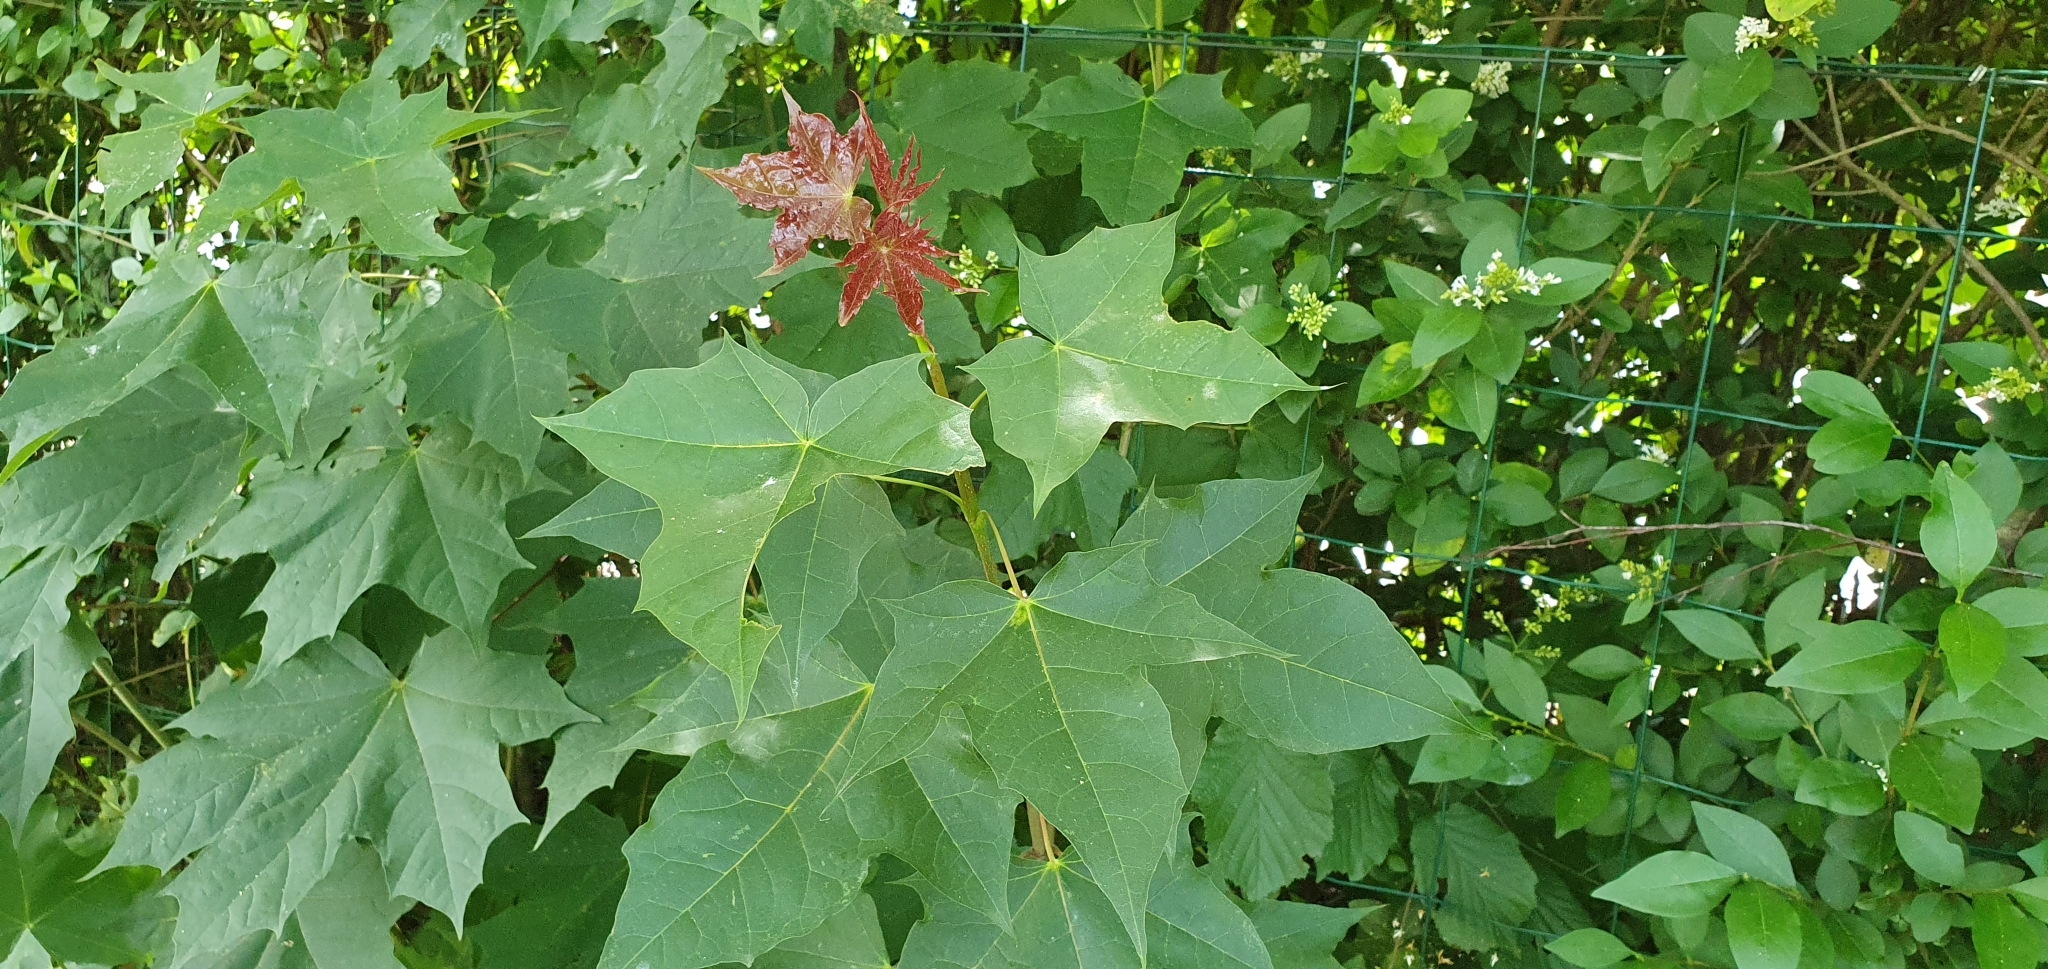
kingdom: Plantae
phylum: Tracheophyta
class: Magnoliopsida
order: Sapindales
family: Sapindaceae
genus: Acer
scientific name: Acer platanoides
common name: Norway maple
